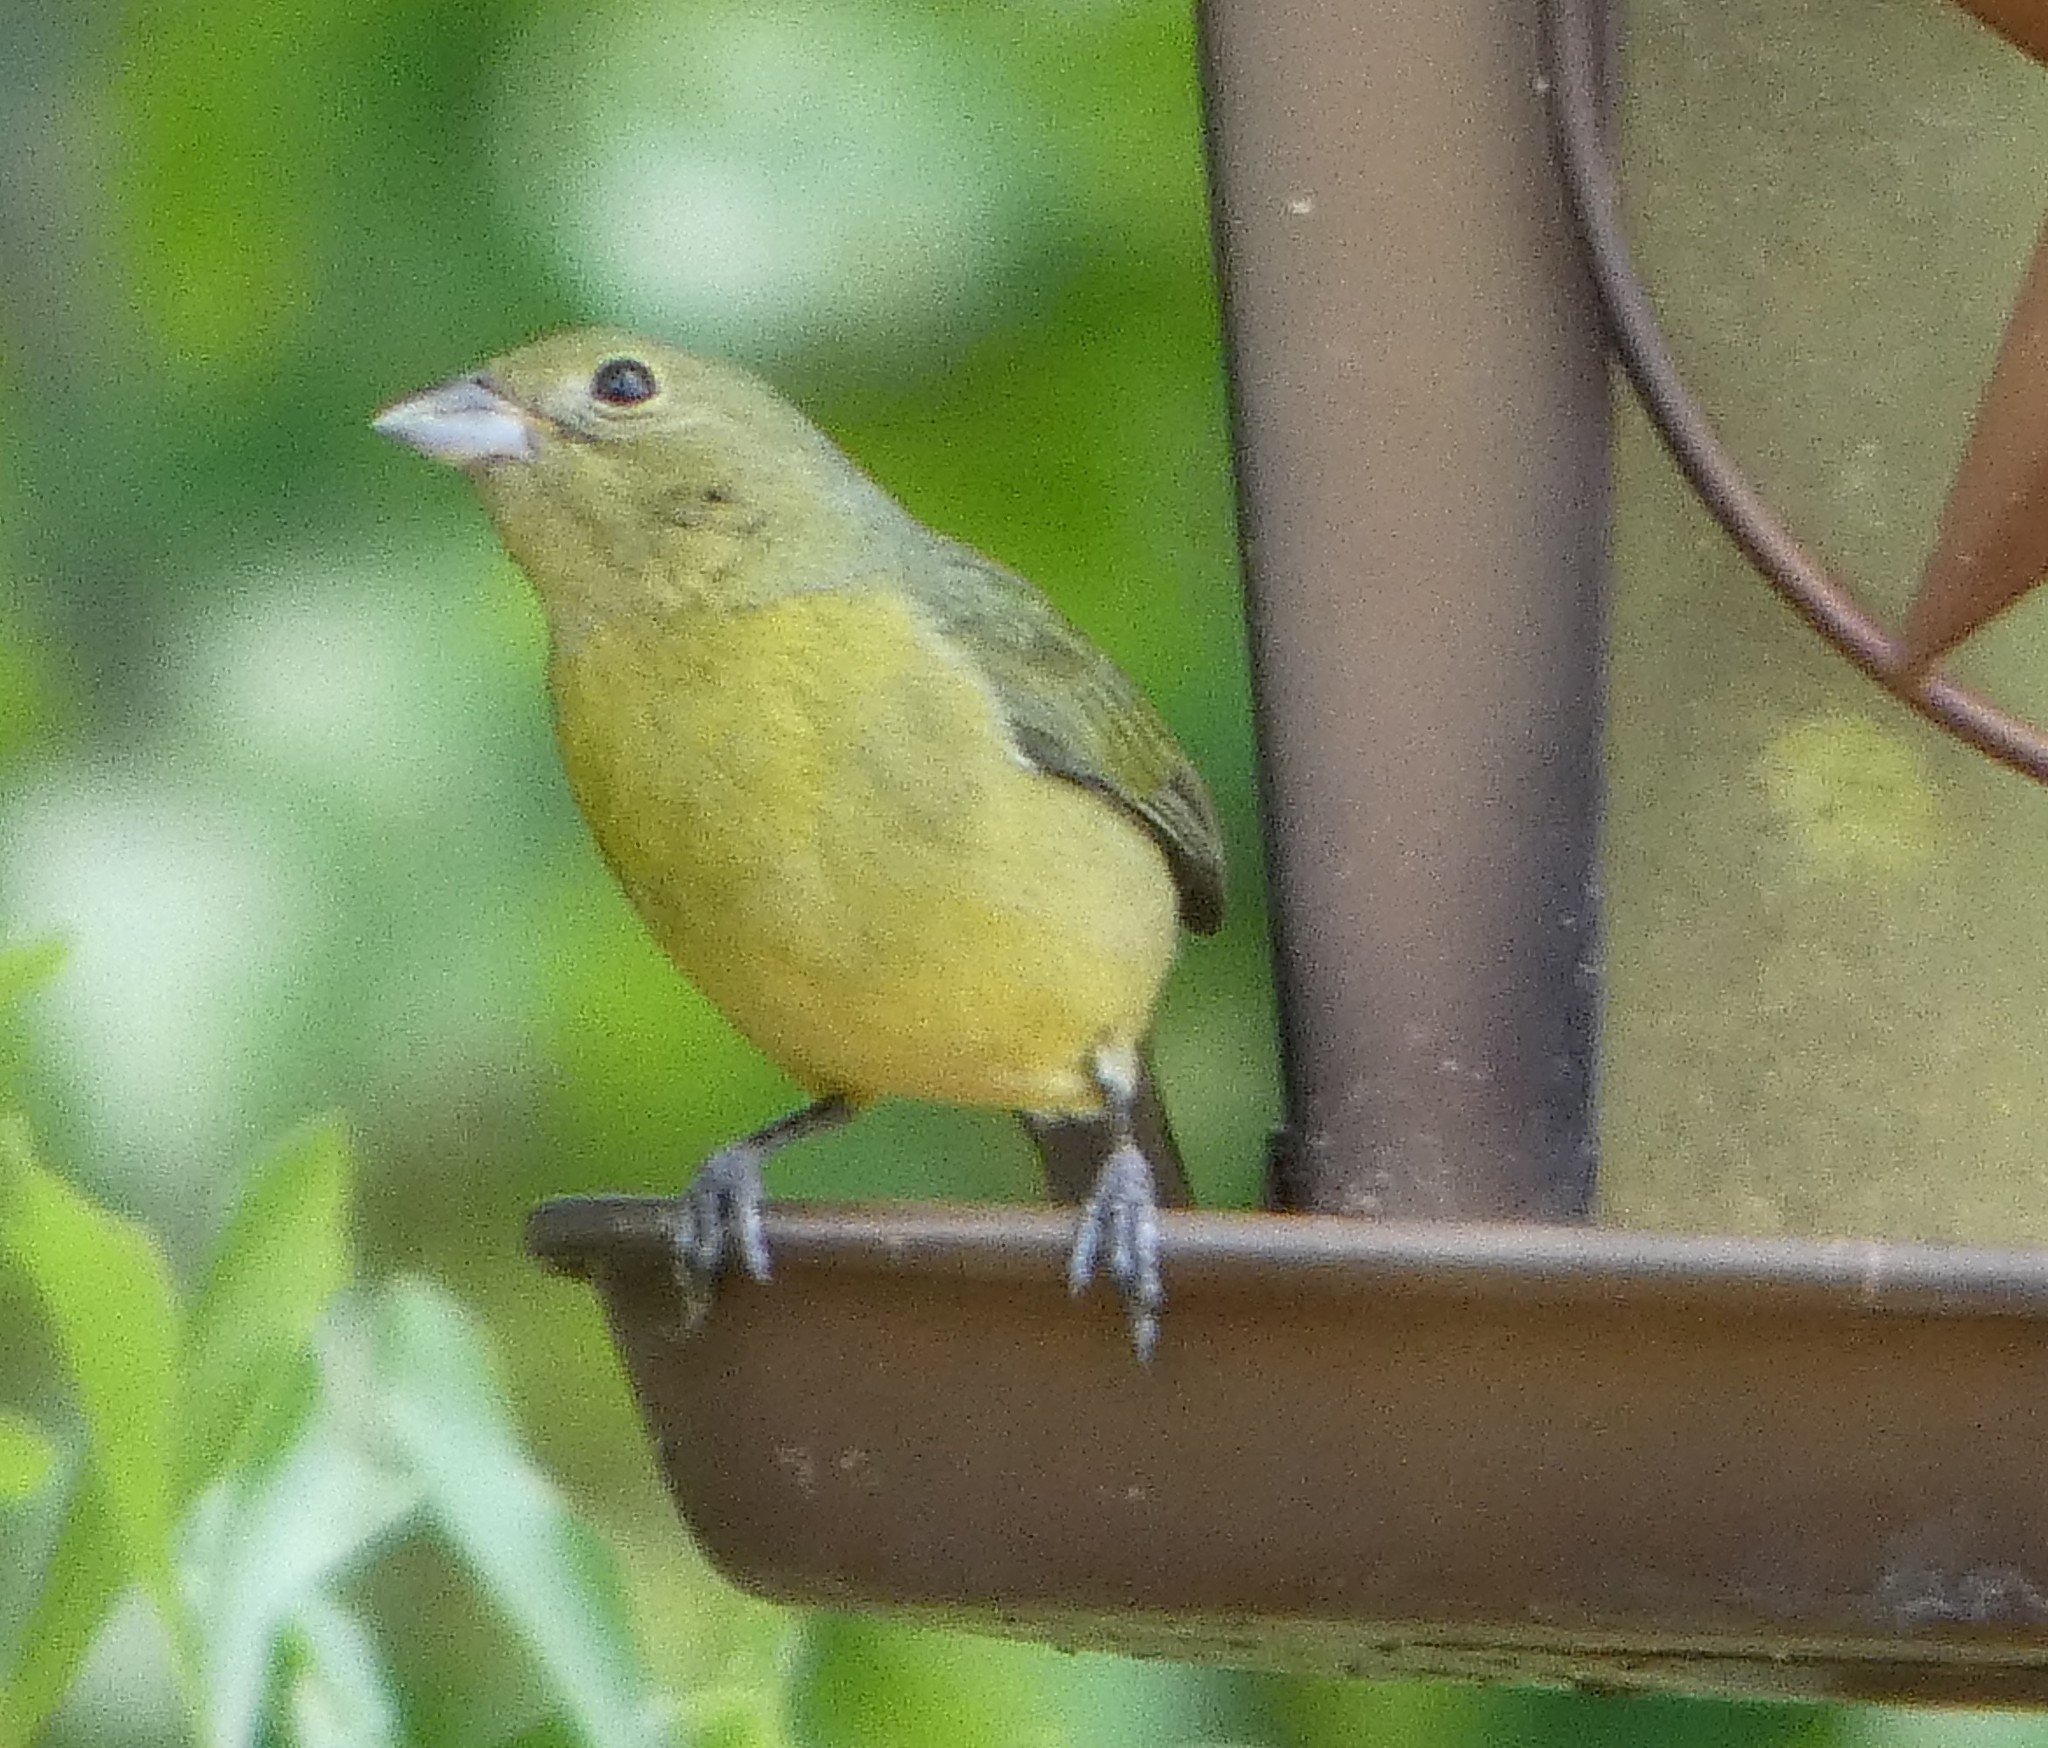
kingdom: Animalia
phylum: Chordata
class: Aves
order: Passeriformes
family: Cardinalidae
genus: Passerina
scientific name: Passerina ciris
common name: Painted bunting
